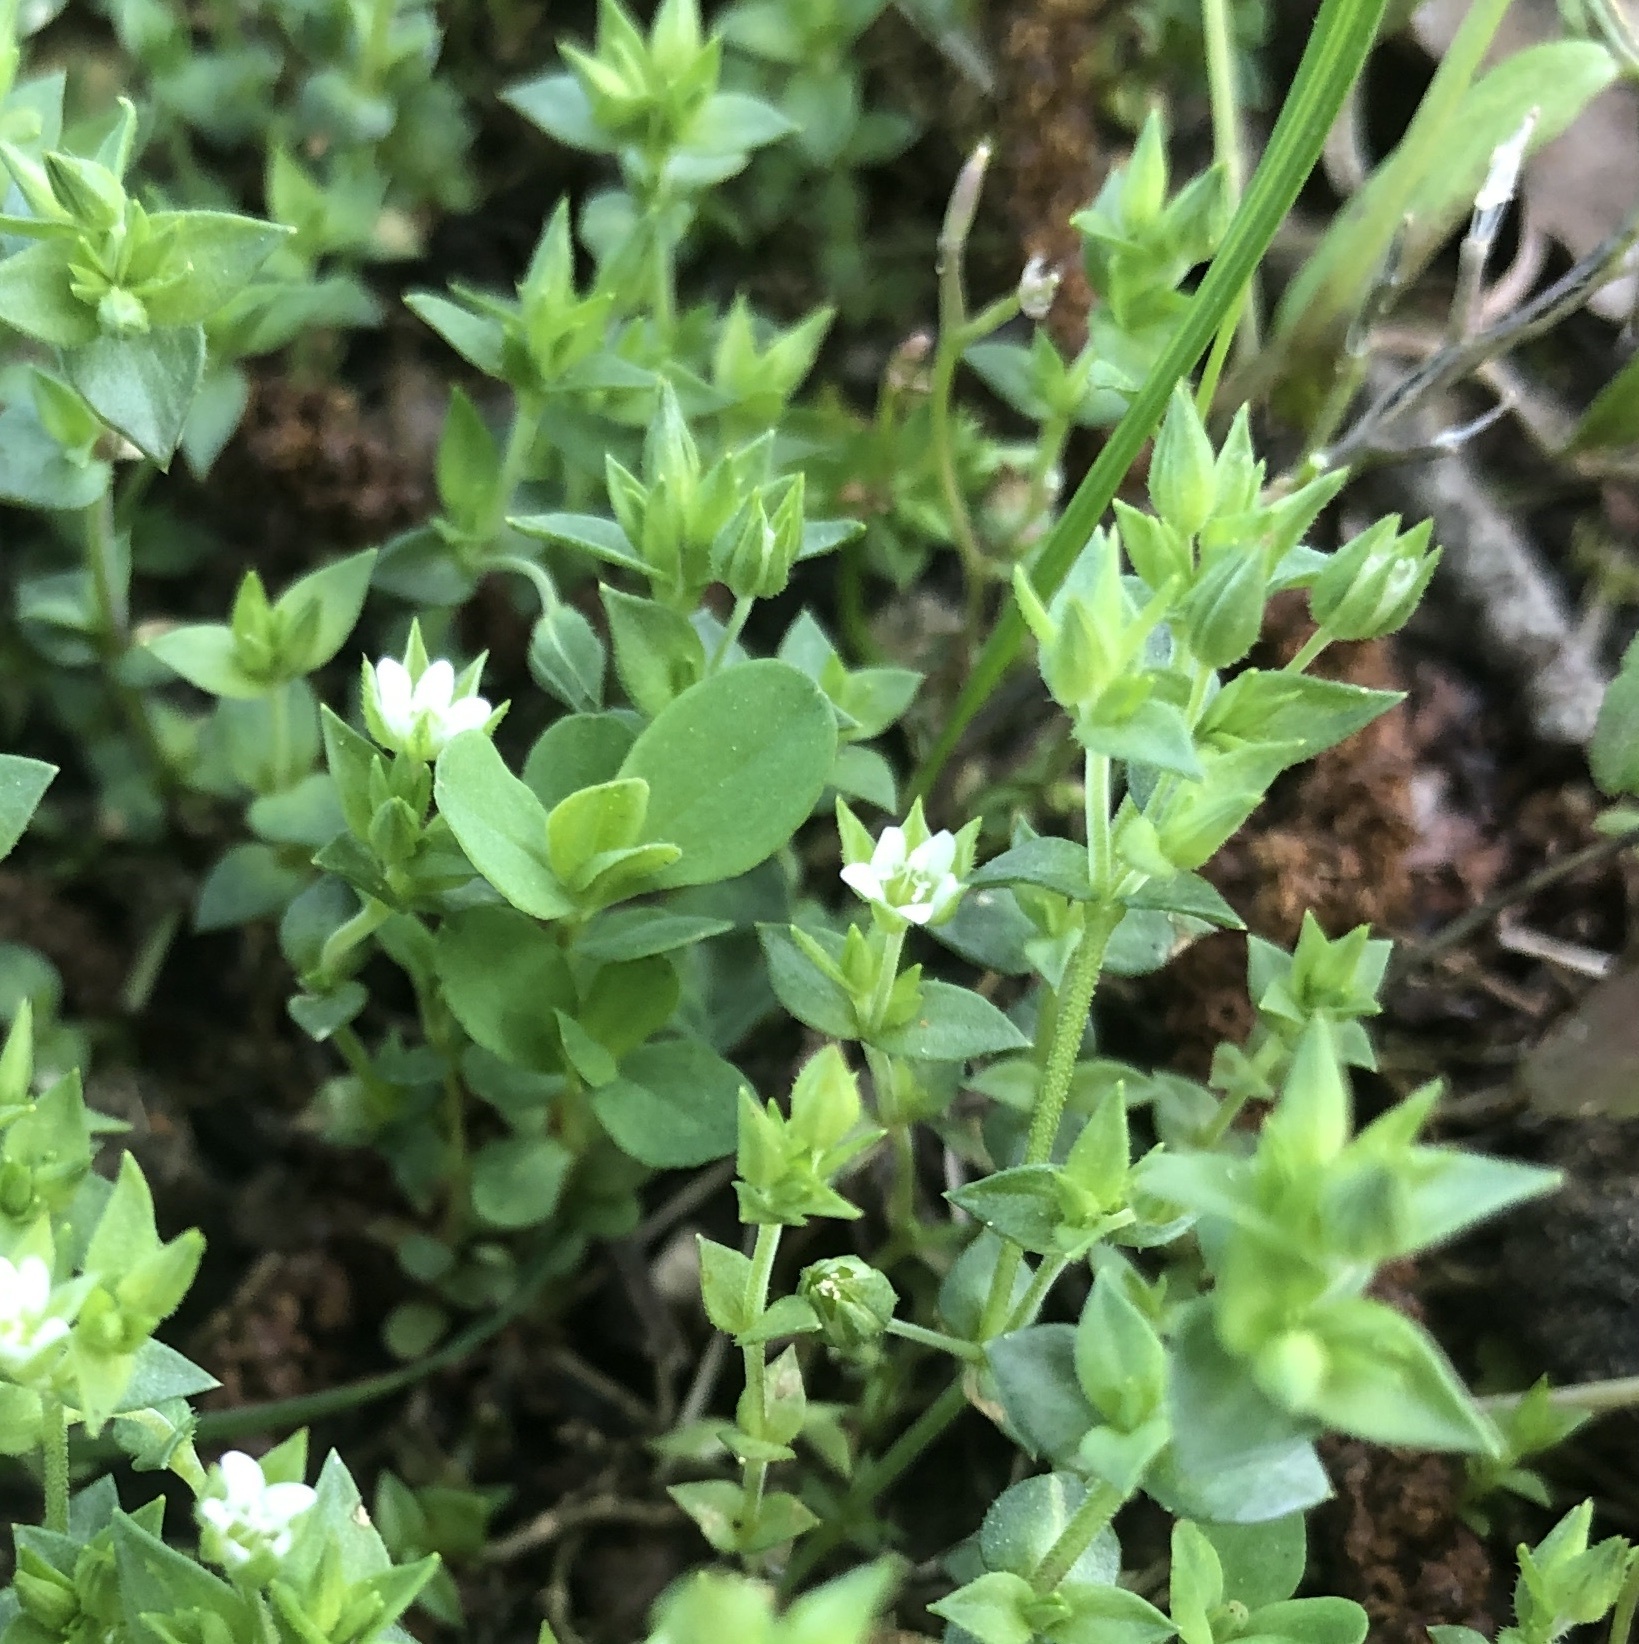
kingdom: Plantae
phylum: Tracheophyta
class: Magnoliopsida
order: Caryophyllales
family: Caryophyllaceae
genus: Arenaria
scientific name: Arenaria serpyllifolia
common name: Thyme-leaved sandwort
